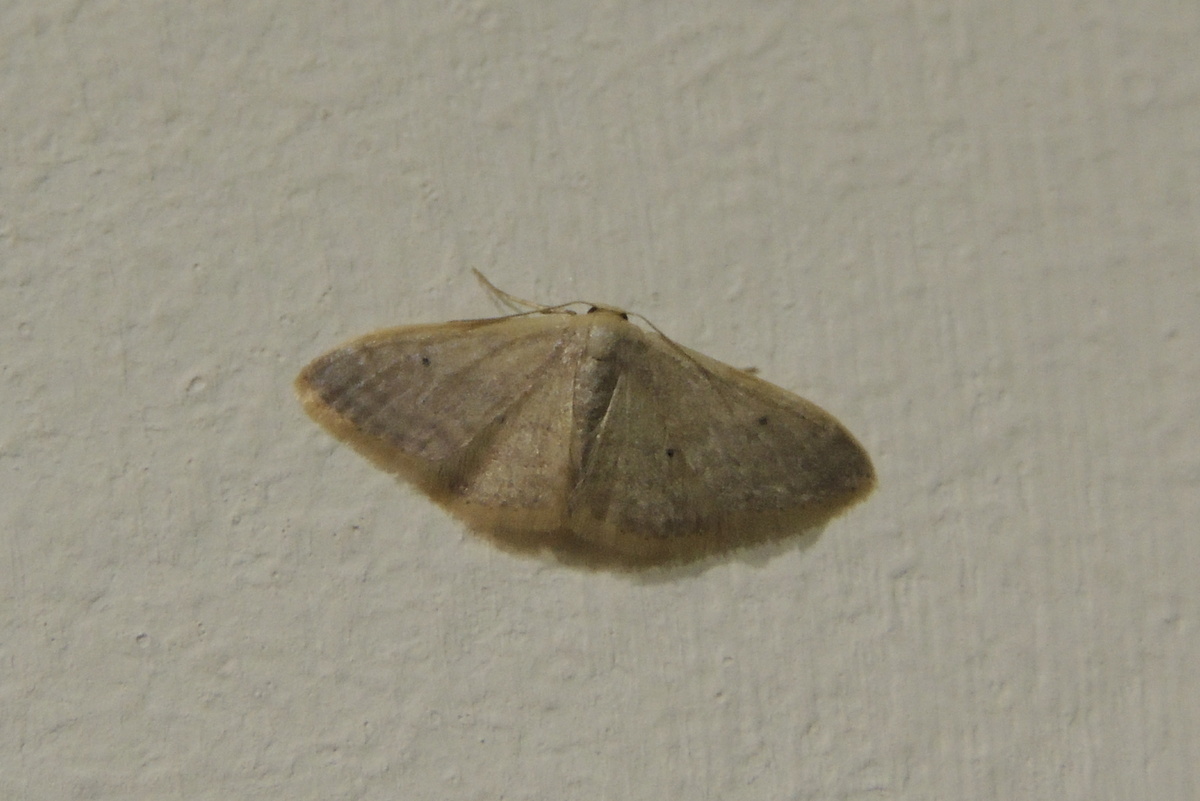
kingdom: Animalia
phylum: Arthropoda
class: Insecta
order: Lepidoptera
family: Geometridae
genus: Idaea
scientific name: Idaea distinctaria
